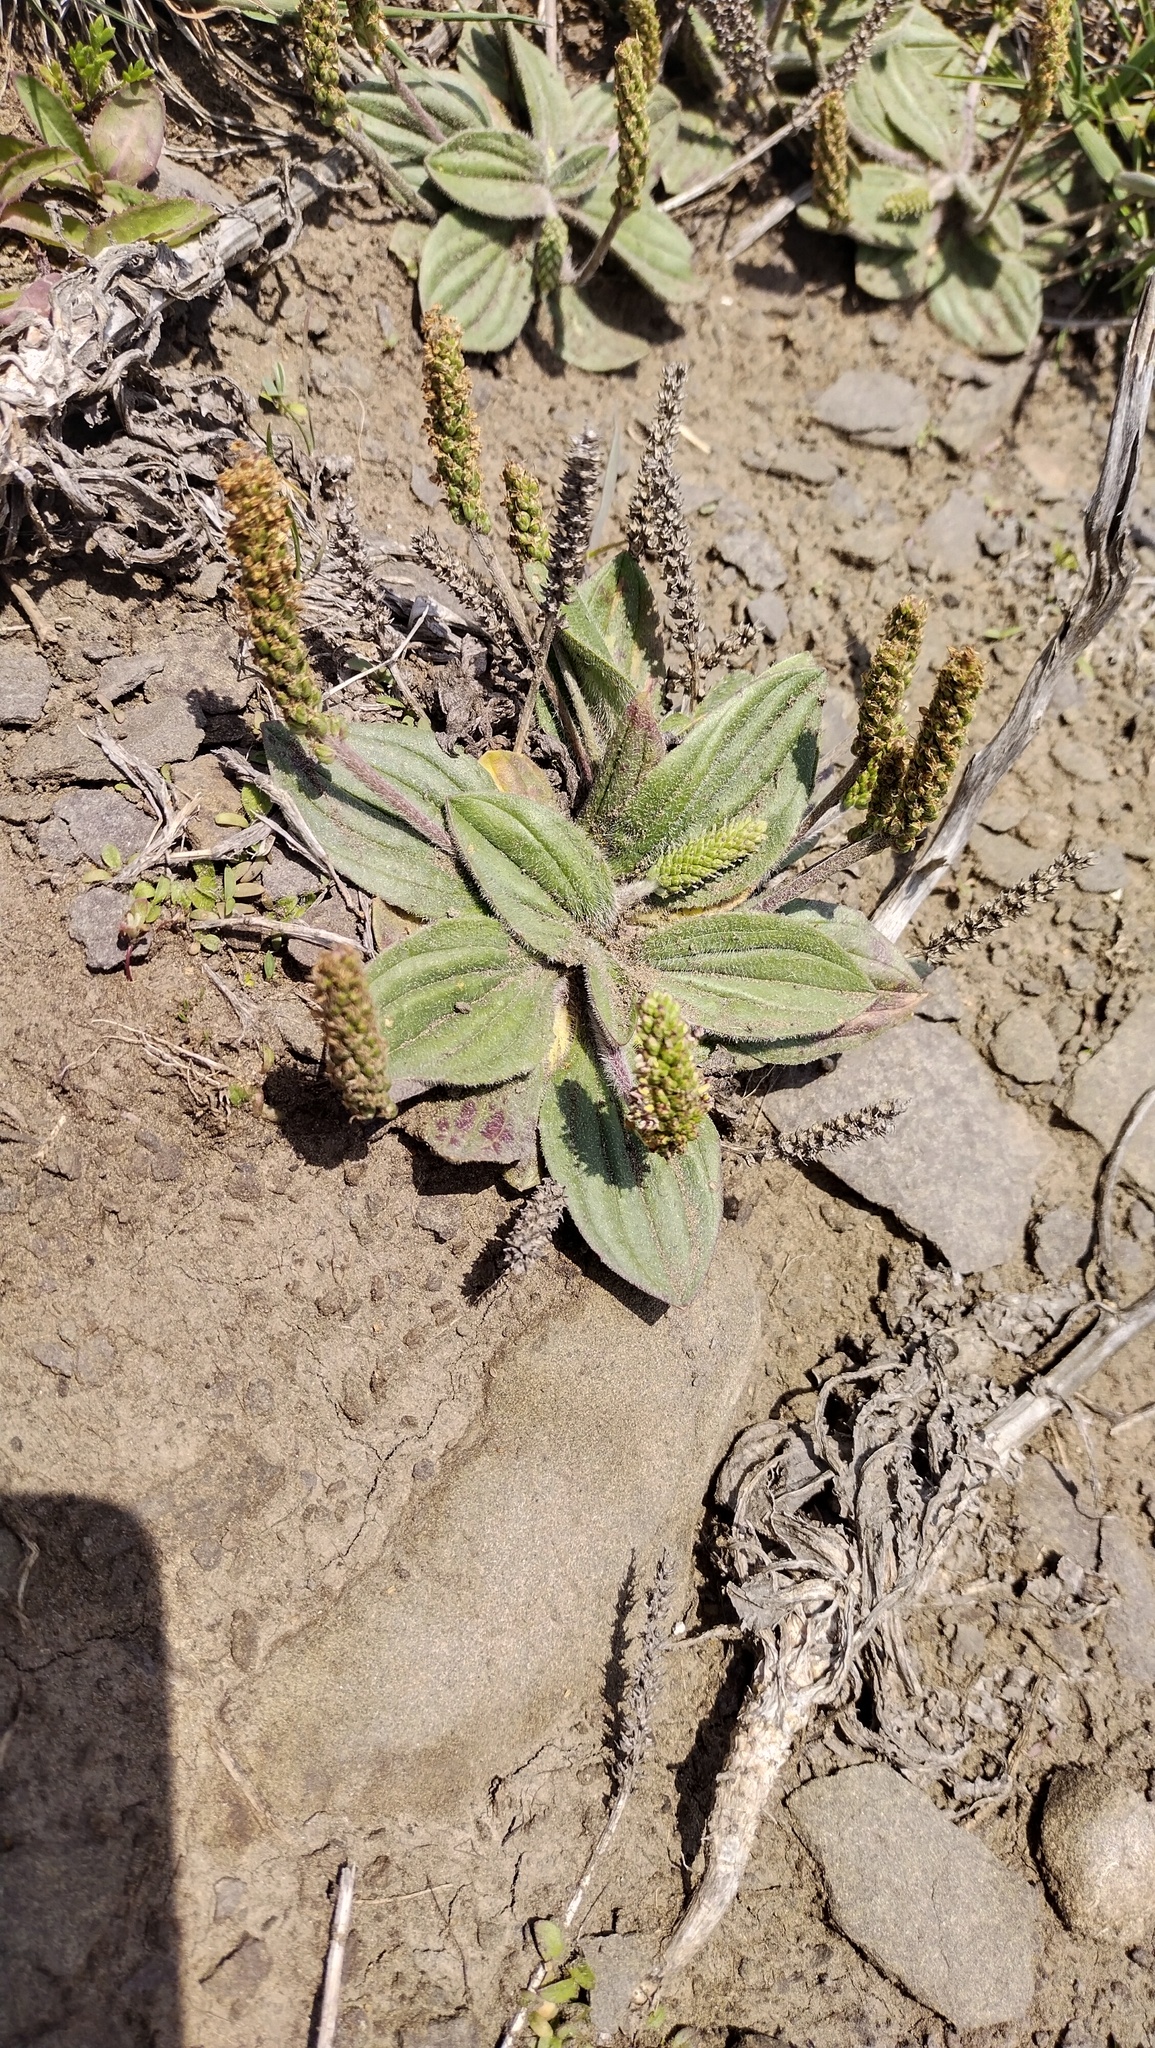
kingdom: Plantae
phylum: Tracheophyta
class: Magnoliopsida
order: Lamiales
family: Plantaginaceae
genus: Plantago
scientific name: Plantago camtschatica
